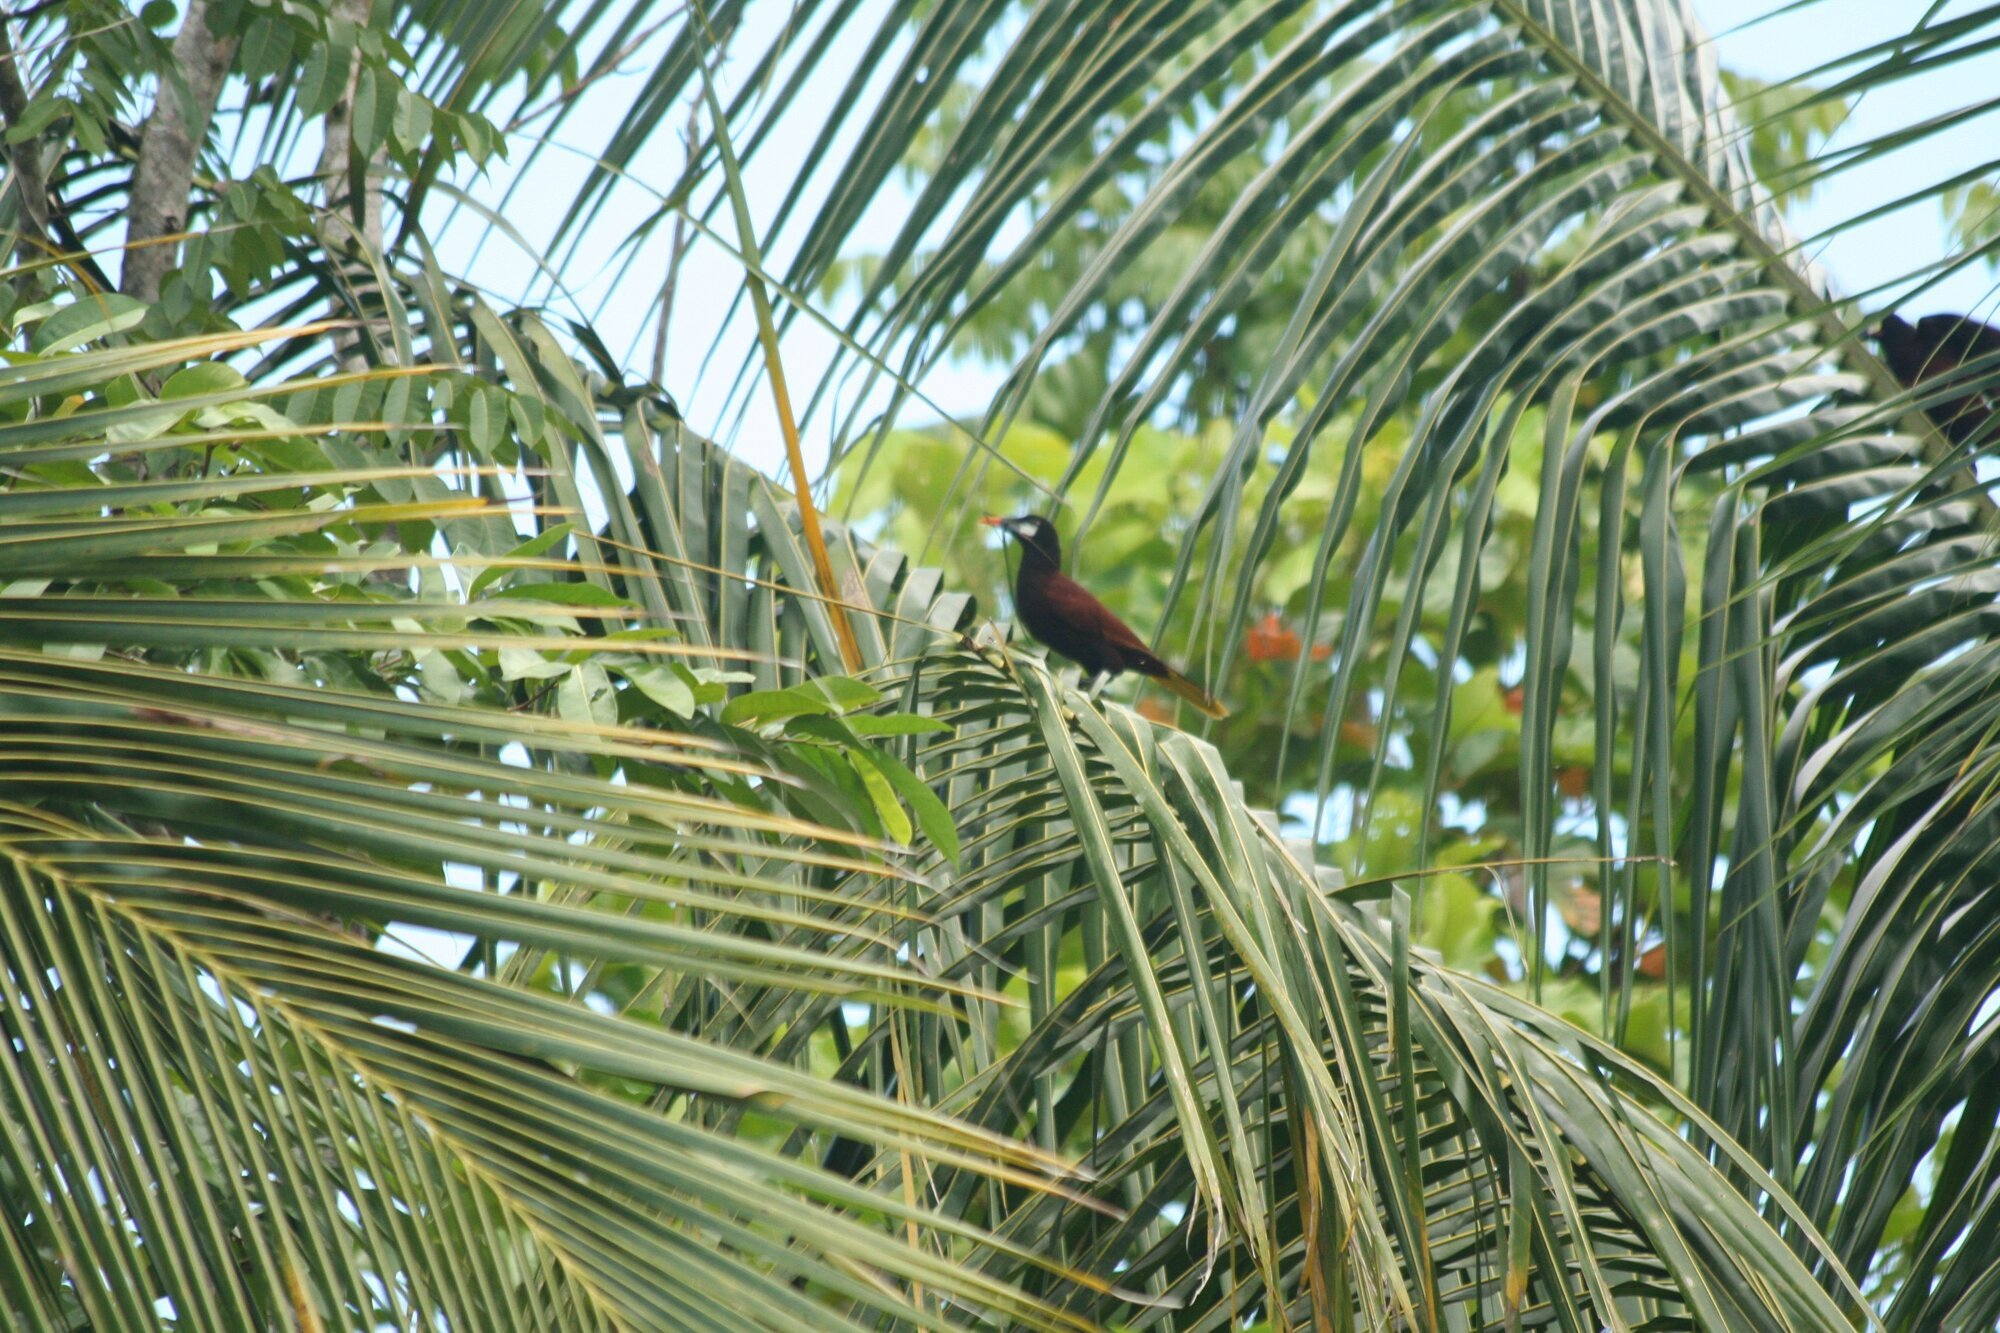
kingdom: Animalia
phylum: Chordata
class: Aves
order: Passeriformes
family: Icteridae
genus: Psarocolius
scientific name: Psarocolius montezuma
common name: Montezuma oropendola
